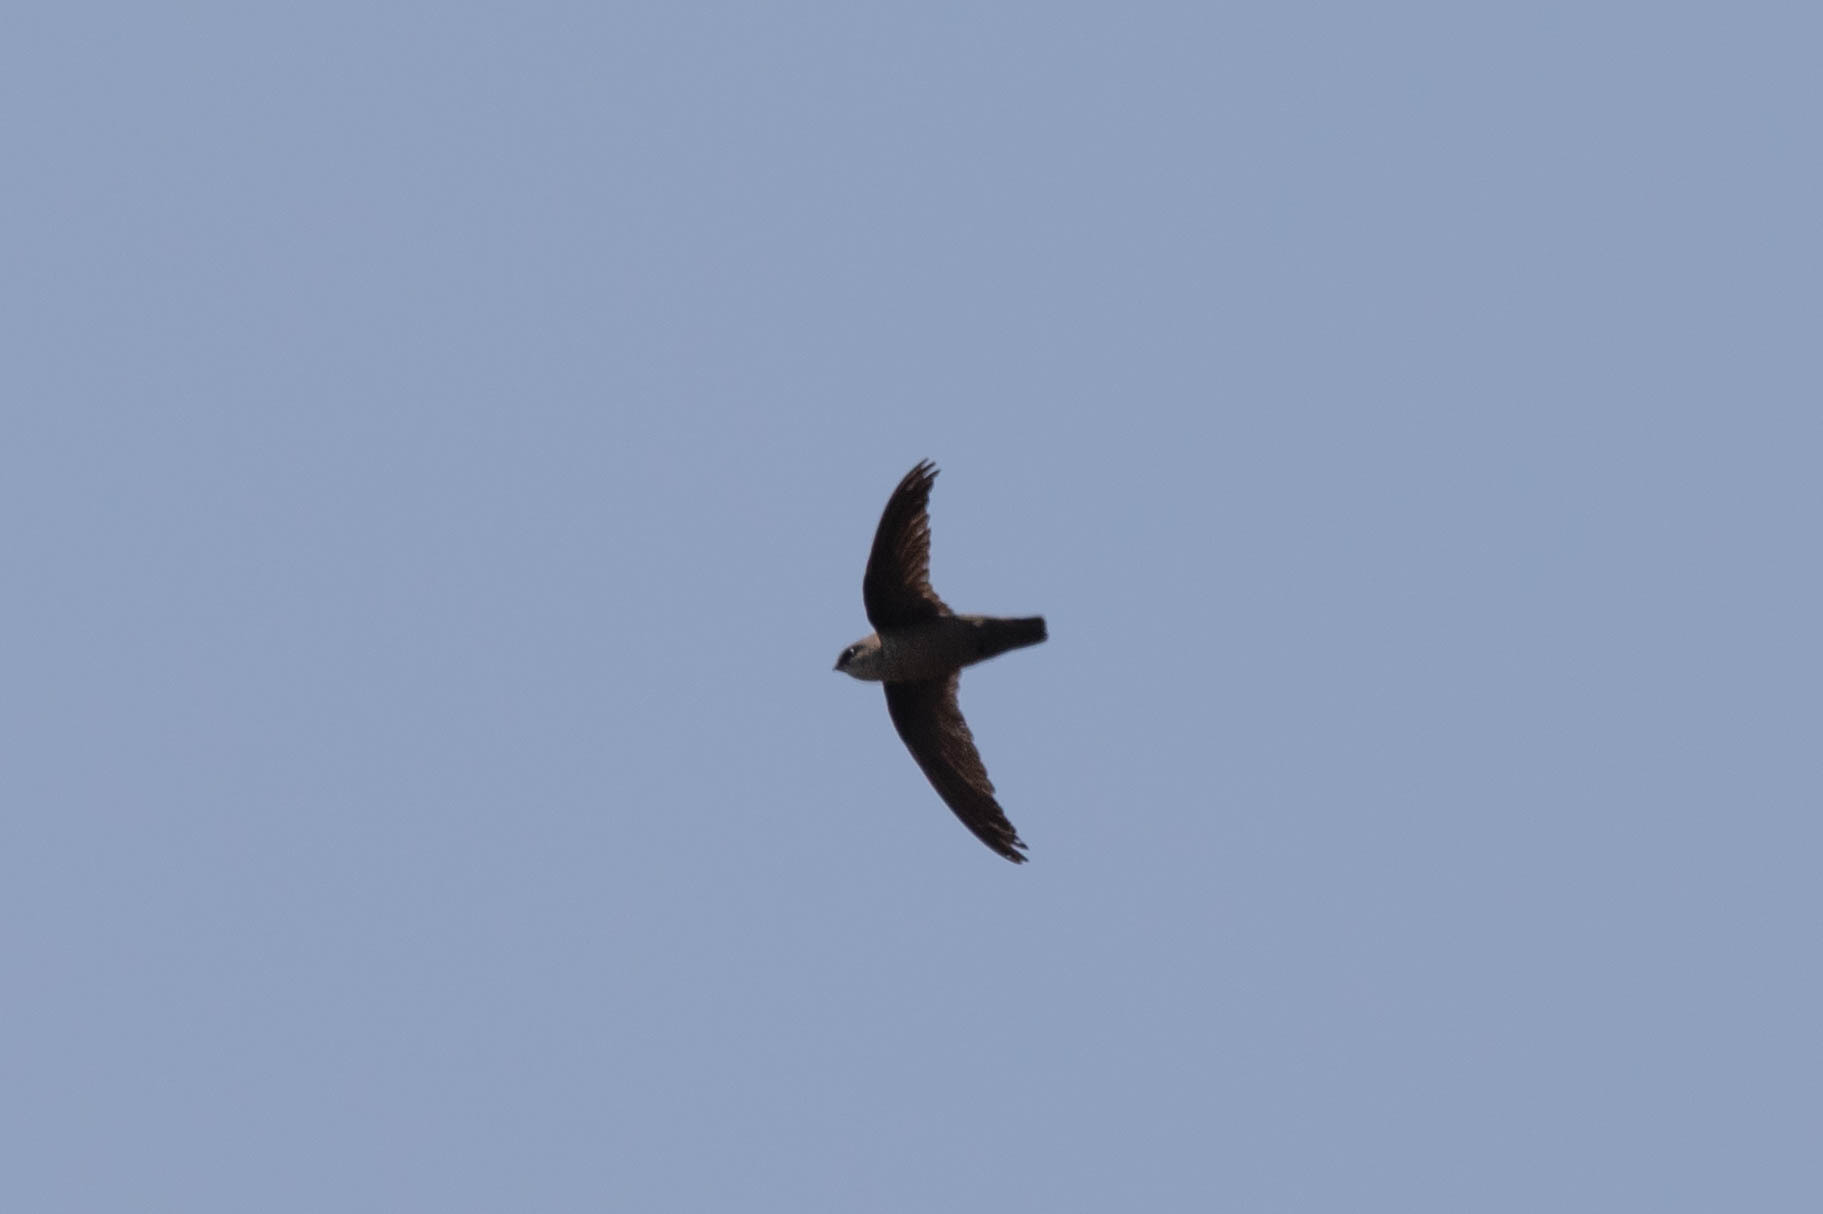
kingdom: Animalia
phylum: Chordata
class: Aves
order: Apodiformes
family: Apodidae
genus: Chaetura
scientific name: Chaetura vauxi
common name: Vaux's swift
